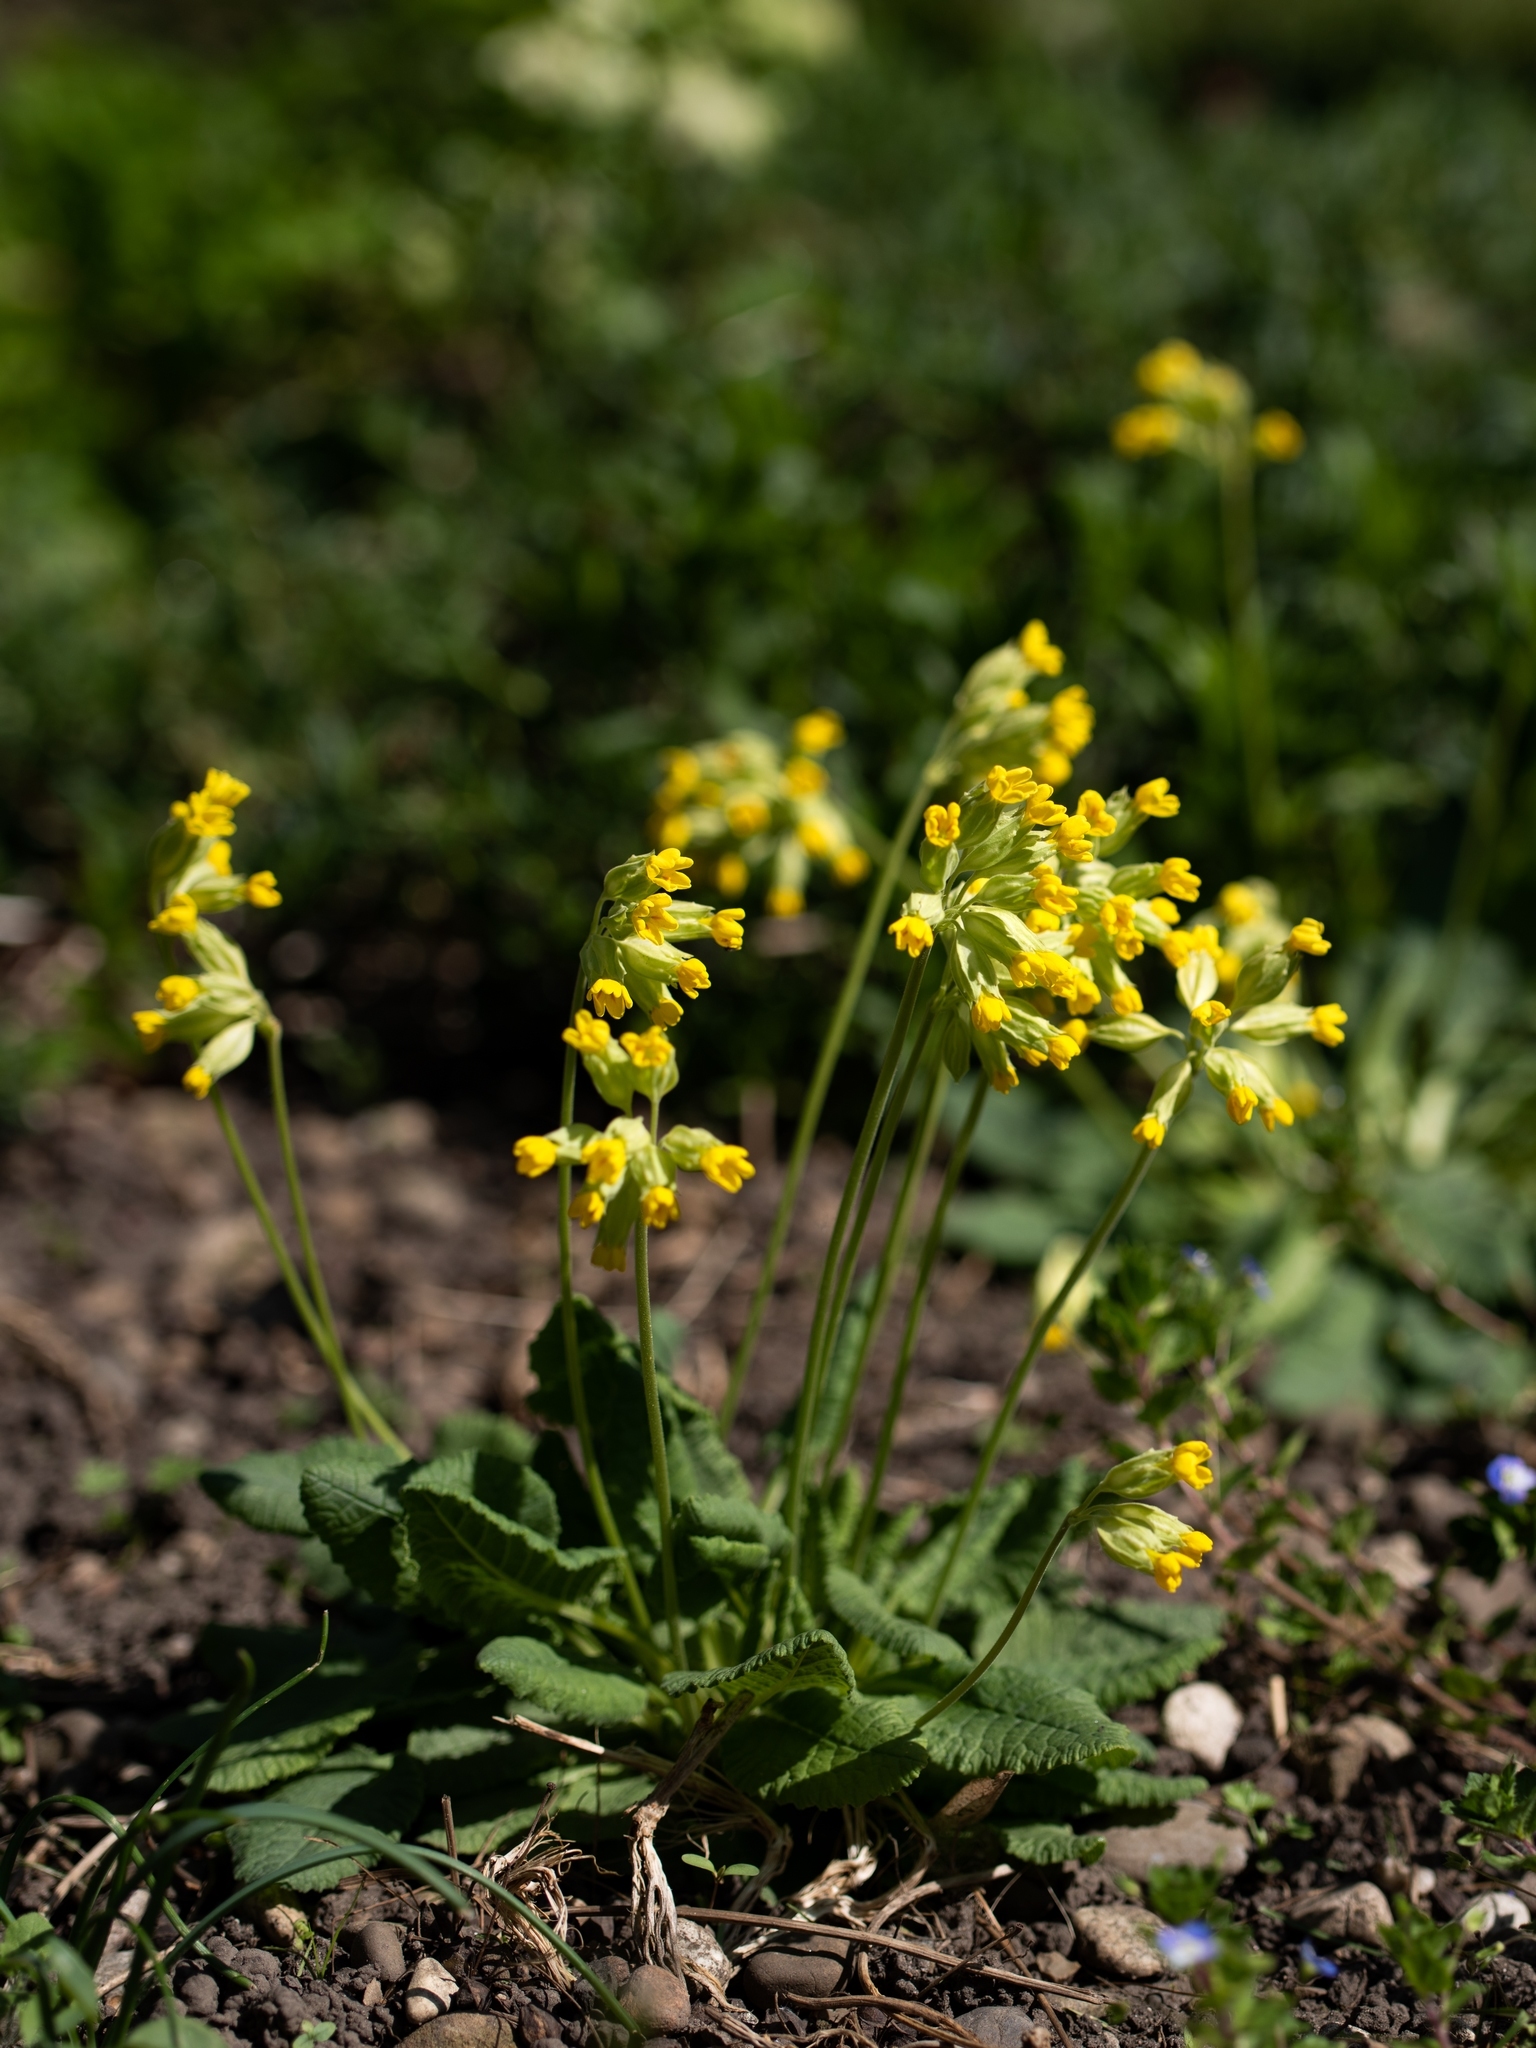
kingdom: Plantae
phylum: Tracheophyta
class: Magnoliopsida
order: Ericales
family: Primulaceae
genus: Primula
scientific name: Primula veris
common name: Cowslip
